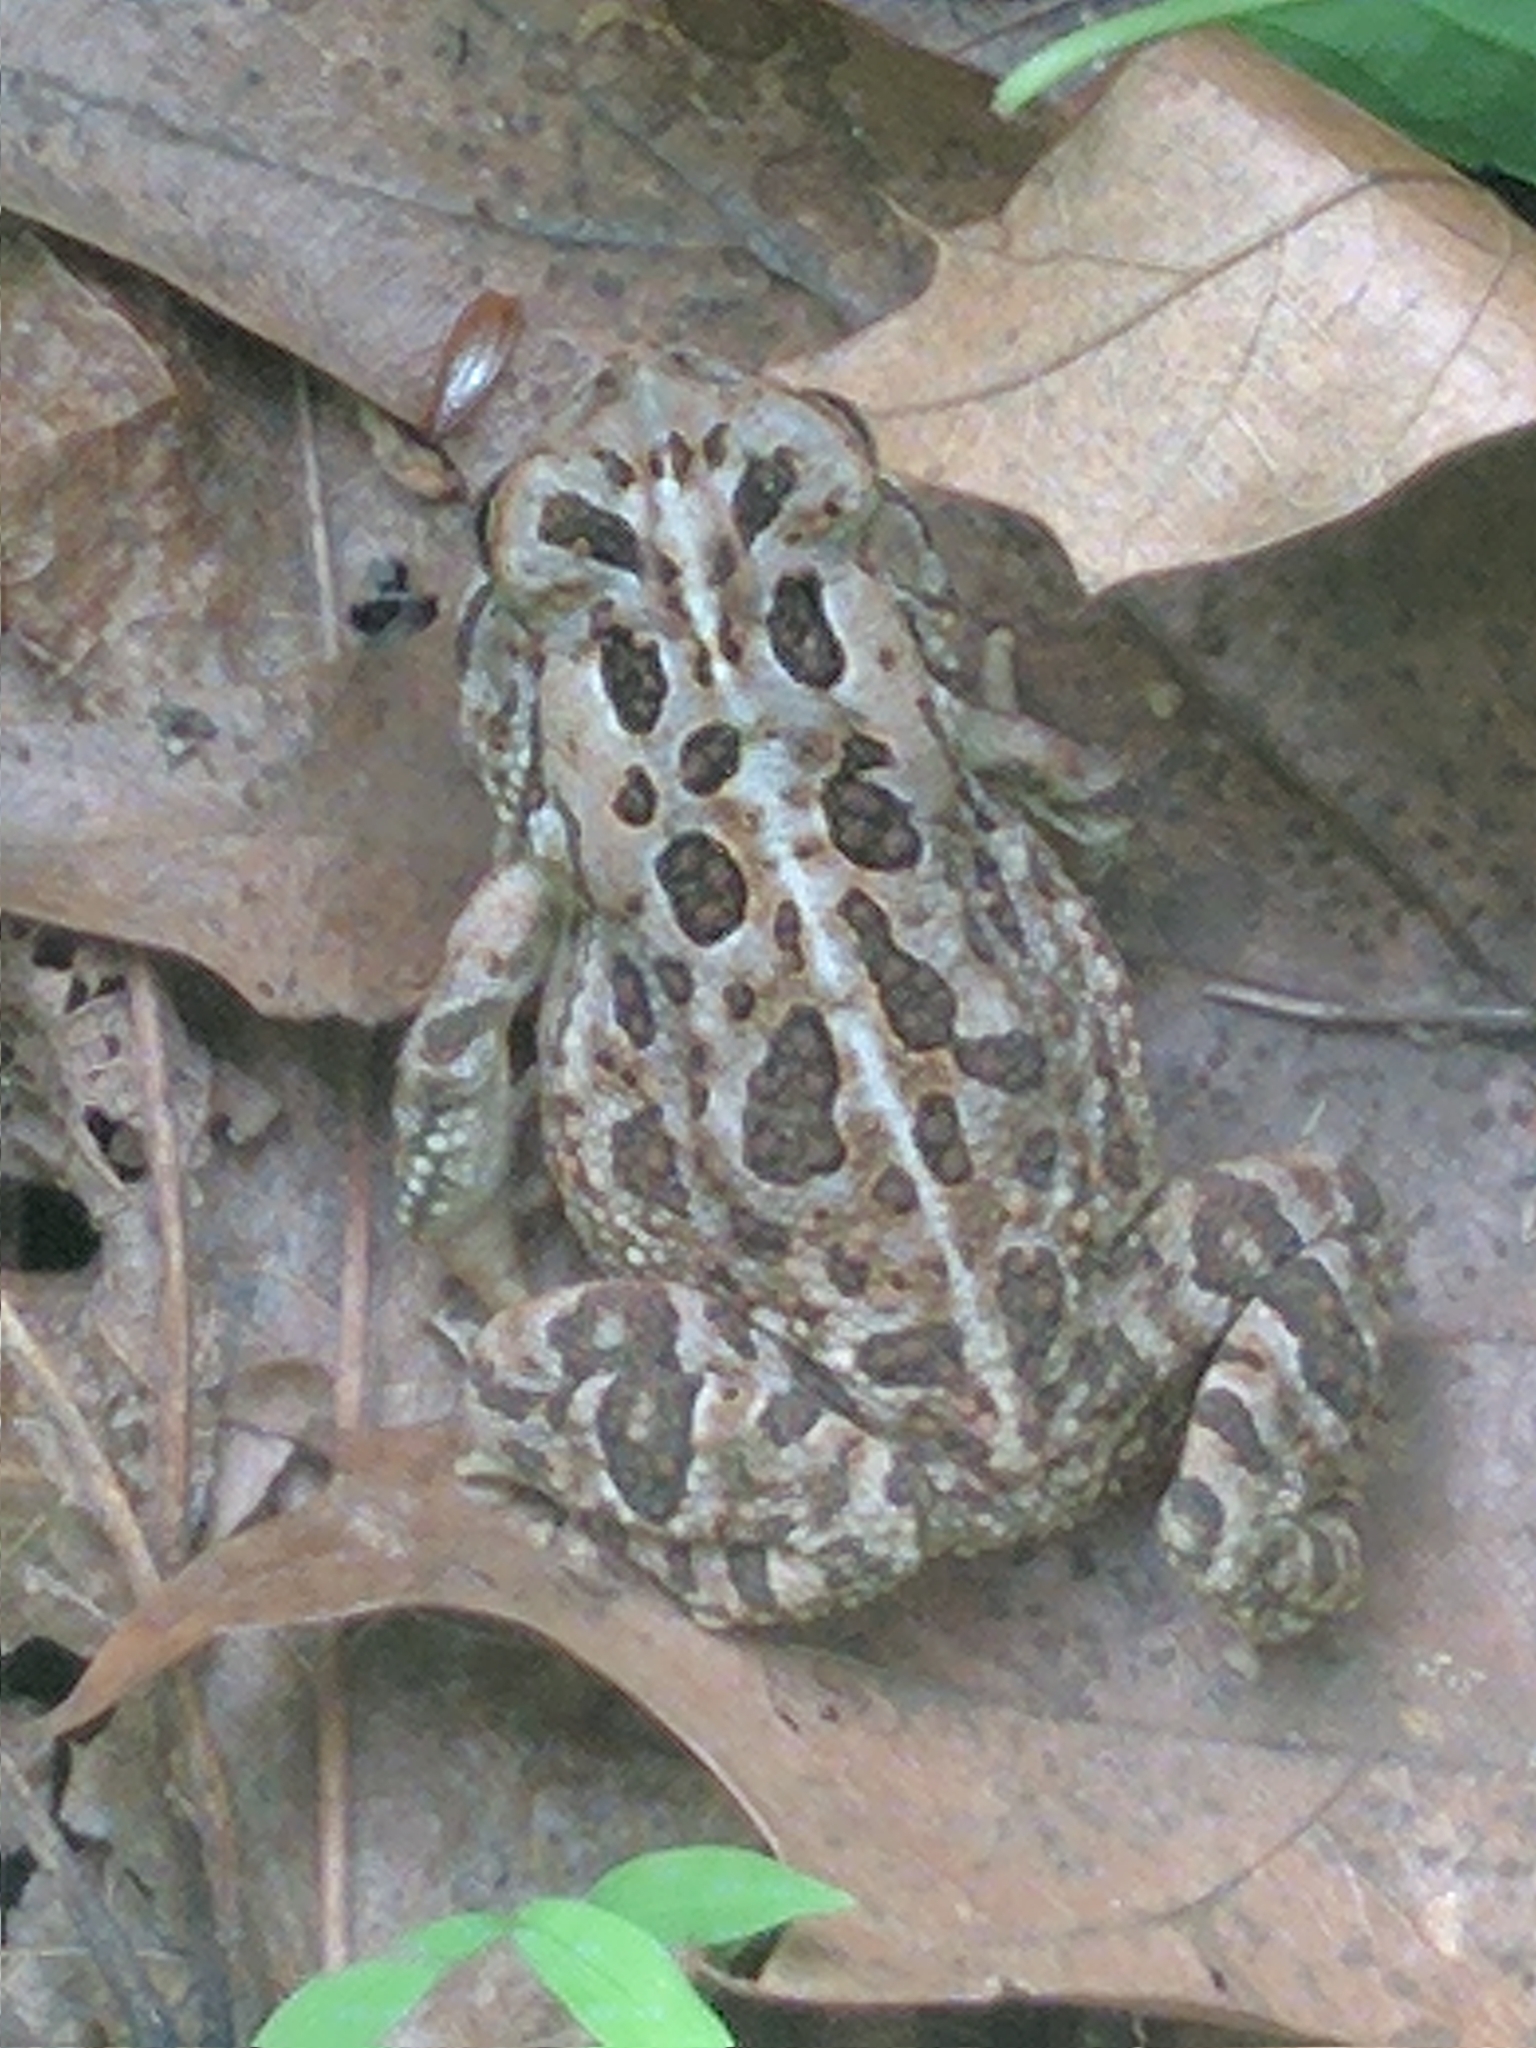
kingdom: Animalia
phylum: Chordata
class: Amphibia
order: Anura
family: Bufonidae
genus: Anaxyrus
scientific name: Anaxyrus fowleri
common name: Fowler's toad
